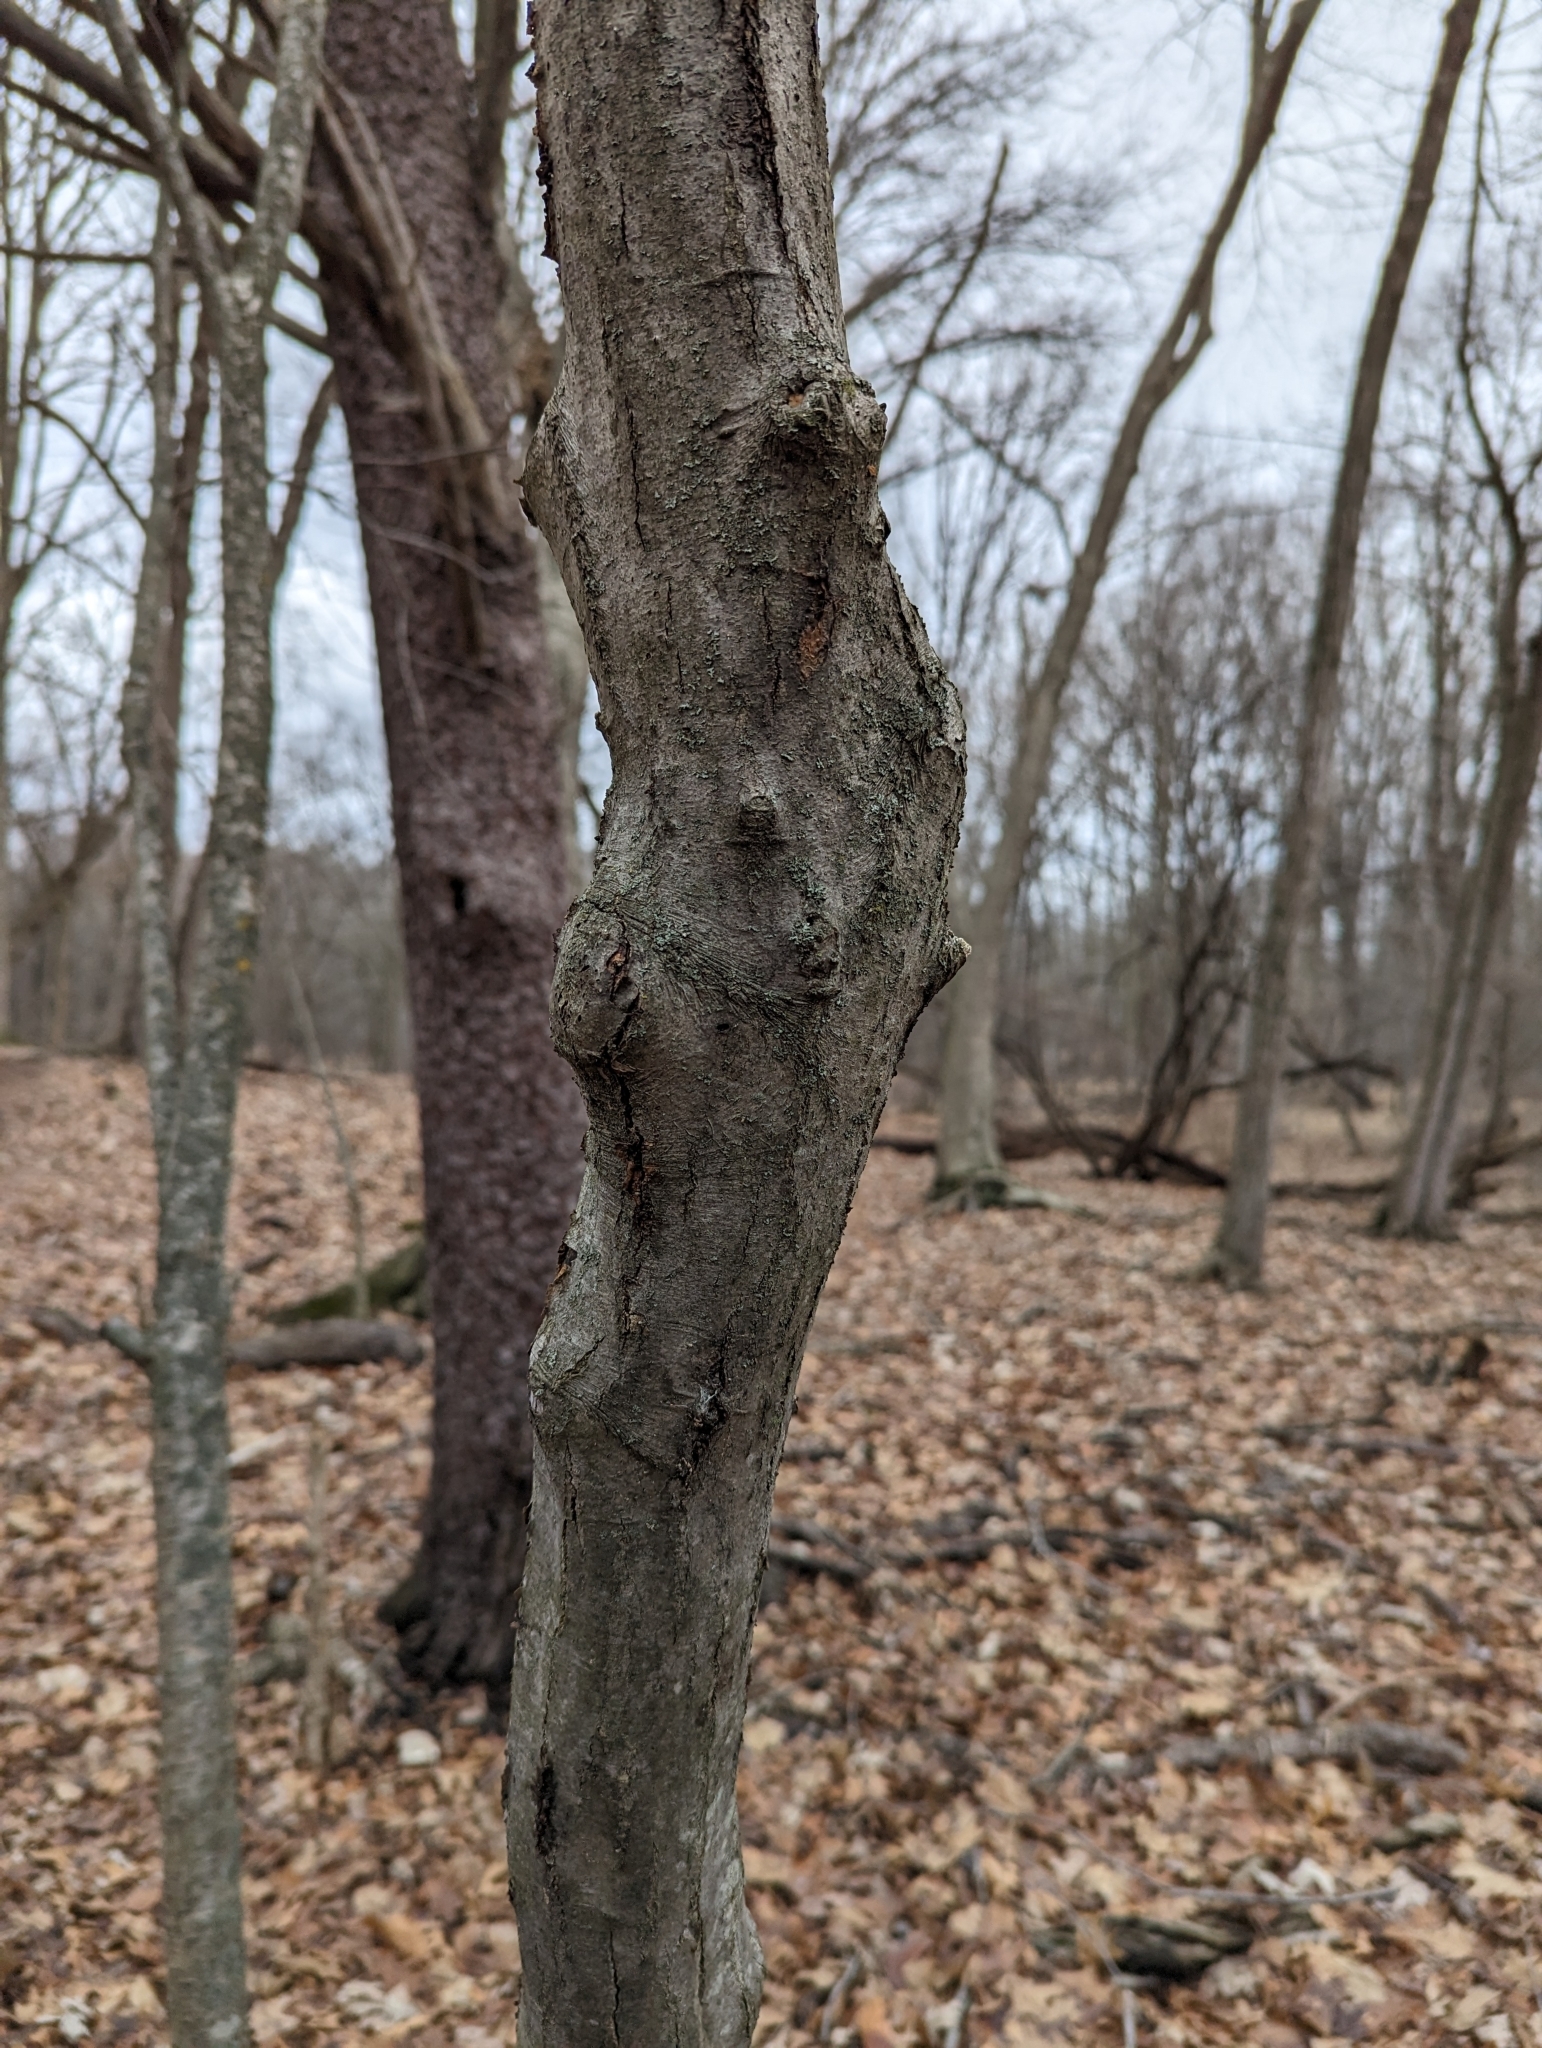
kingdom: Plantae
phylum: Tracheophyta
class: Magnoliopsida
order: Fagales
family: Betulaceae
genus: Carpinus
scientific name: Carpinus caroliniana
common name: American hornbeam
